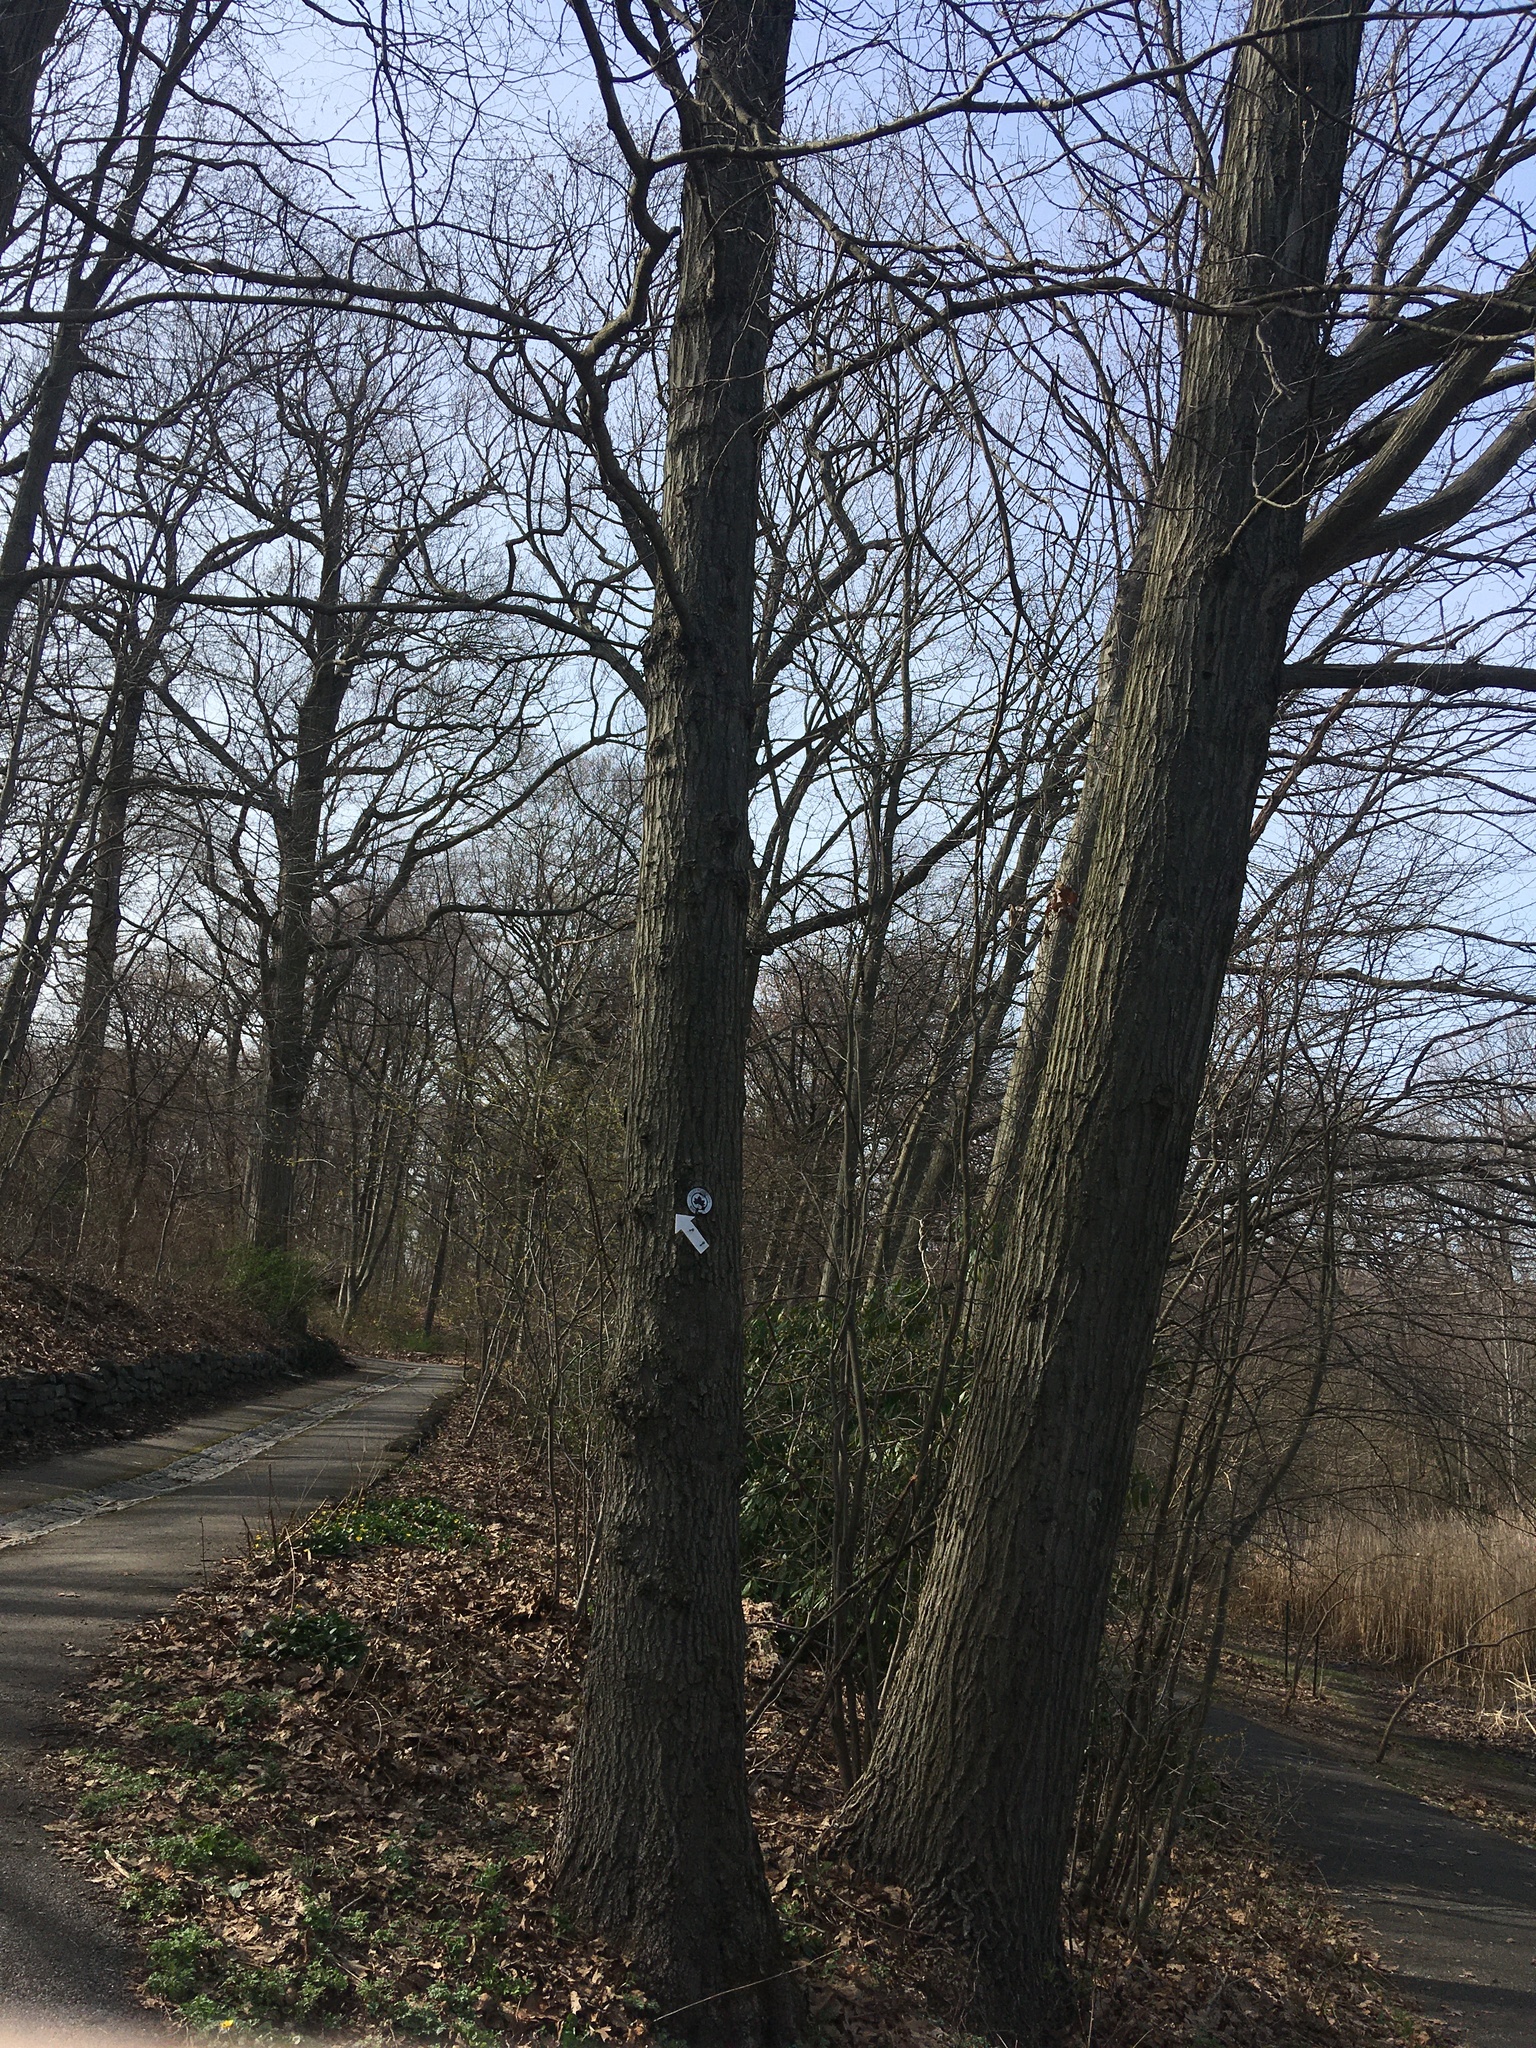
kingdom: Plantae
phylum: Tracheophyta
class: Magnoliopsida
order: Fagales
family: Fagaceae
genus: Quercus
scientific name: Quercus rubra
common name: Red oak
